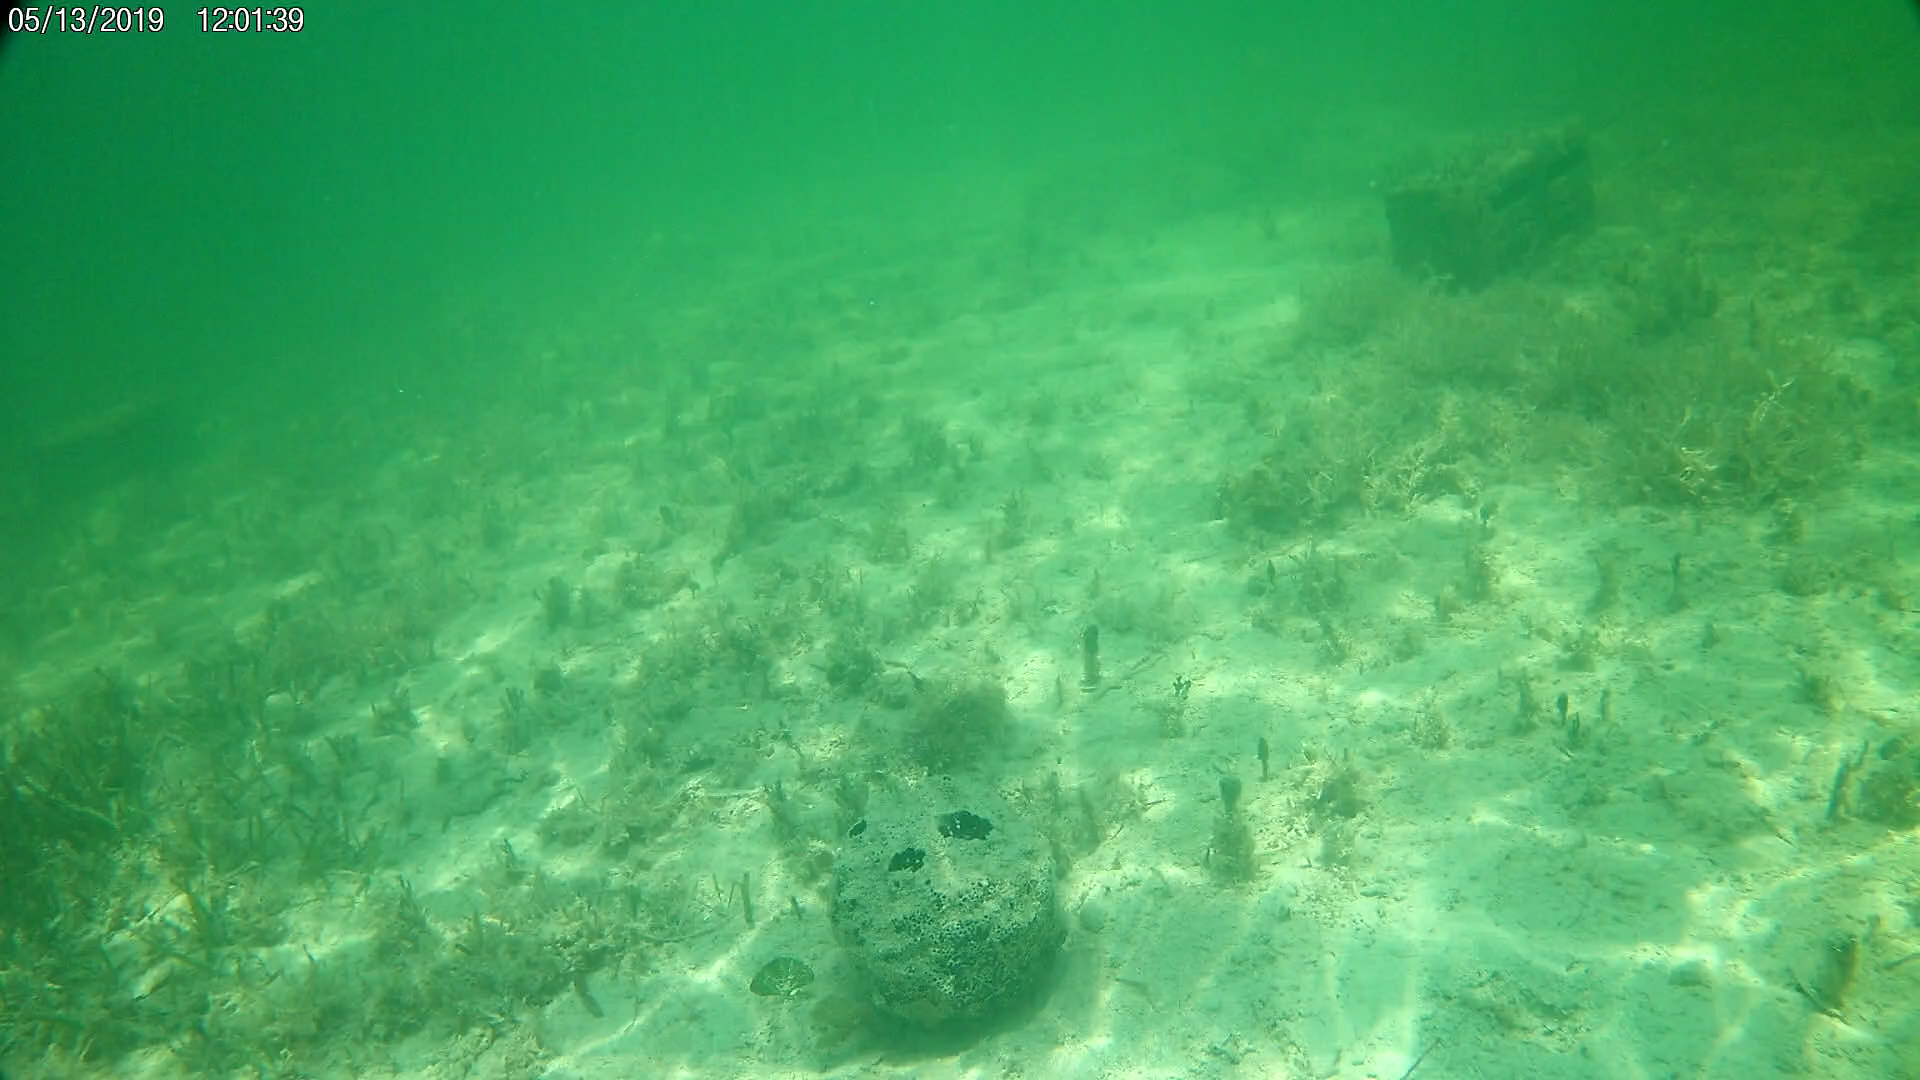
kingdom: Animalia
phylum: Porifera
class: Demospongiae
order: Clionaida
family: Clionaidae
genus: Spheciospongia
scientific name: Spheciospongia vesparium
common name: Manjack
